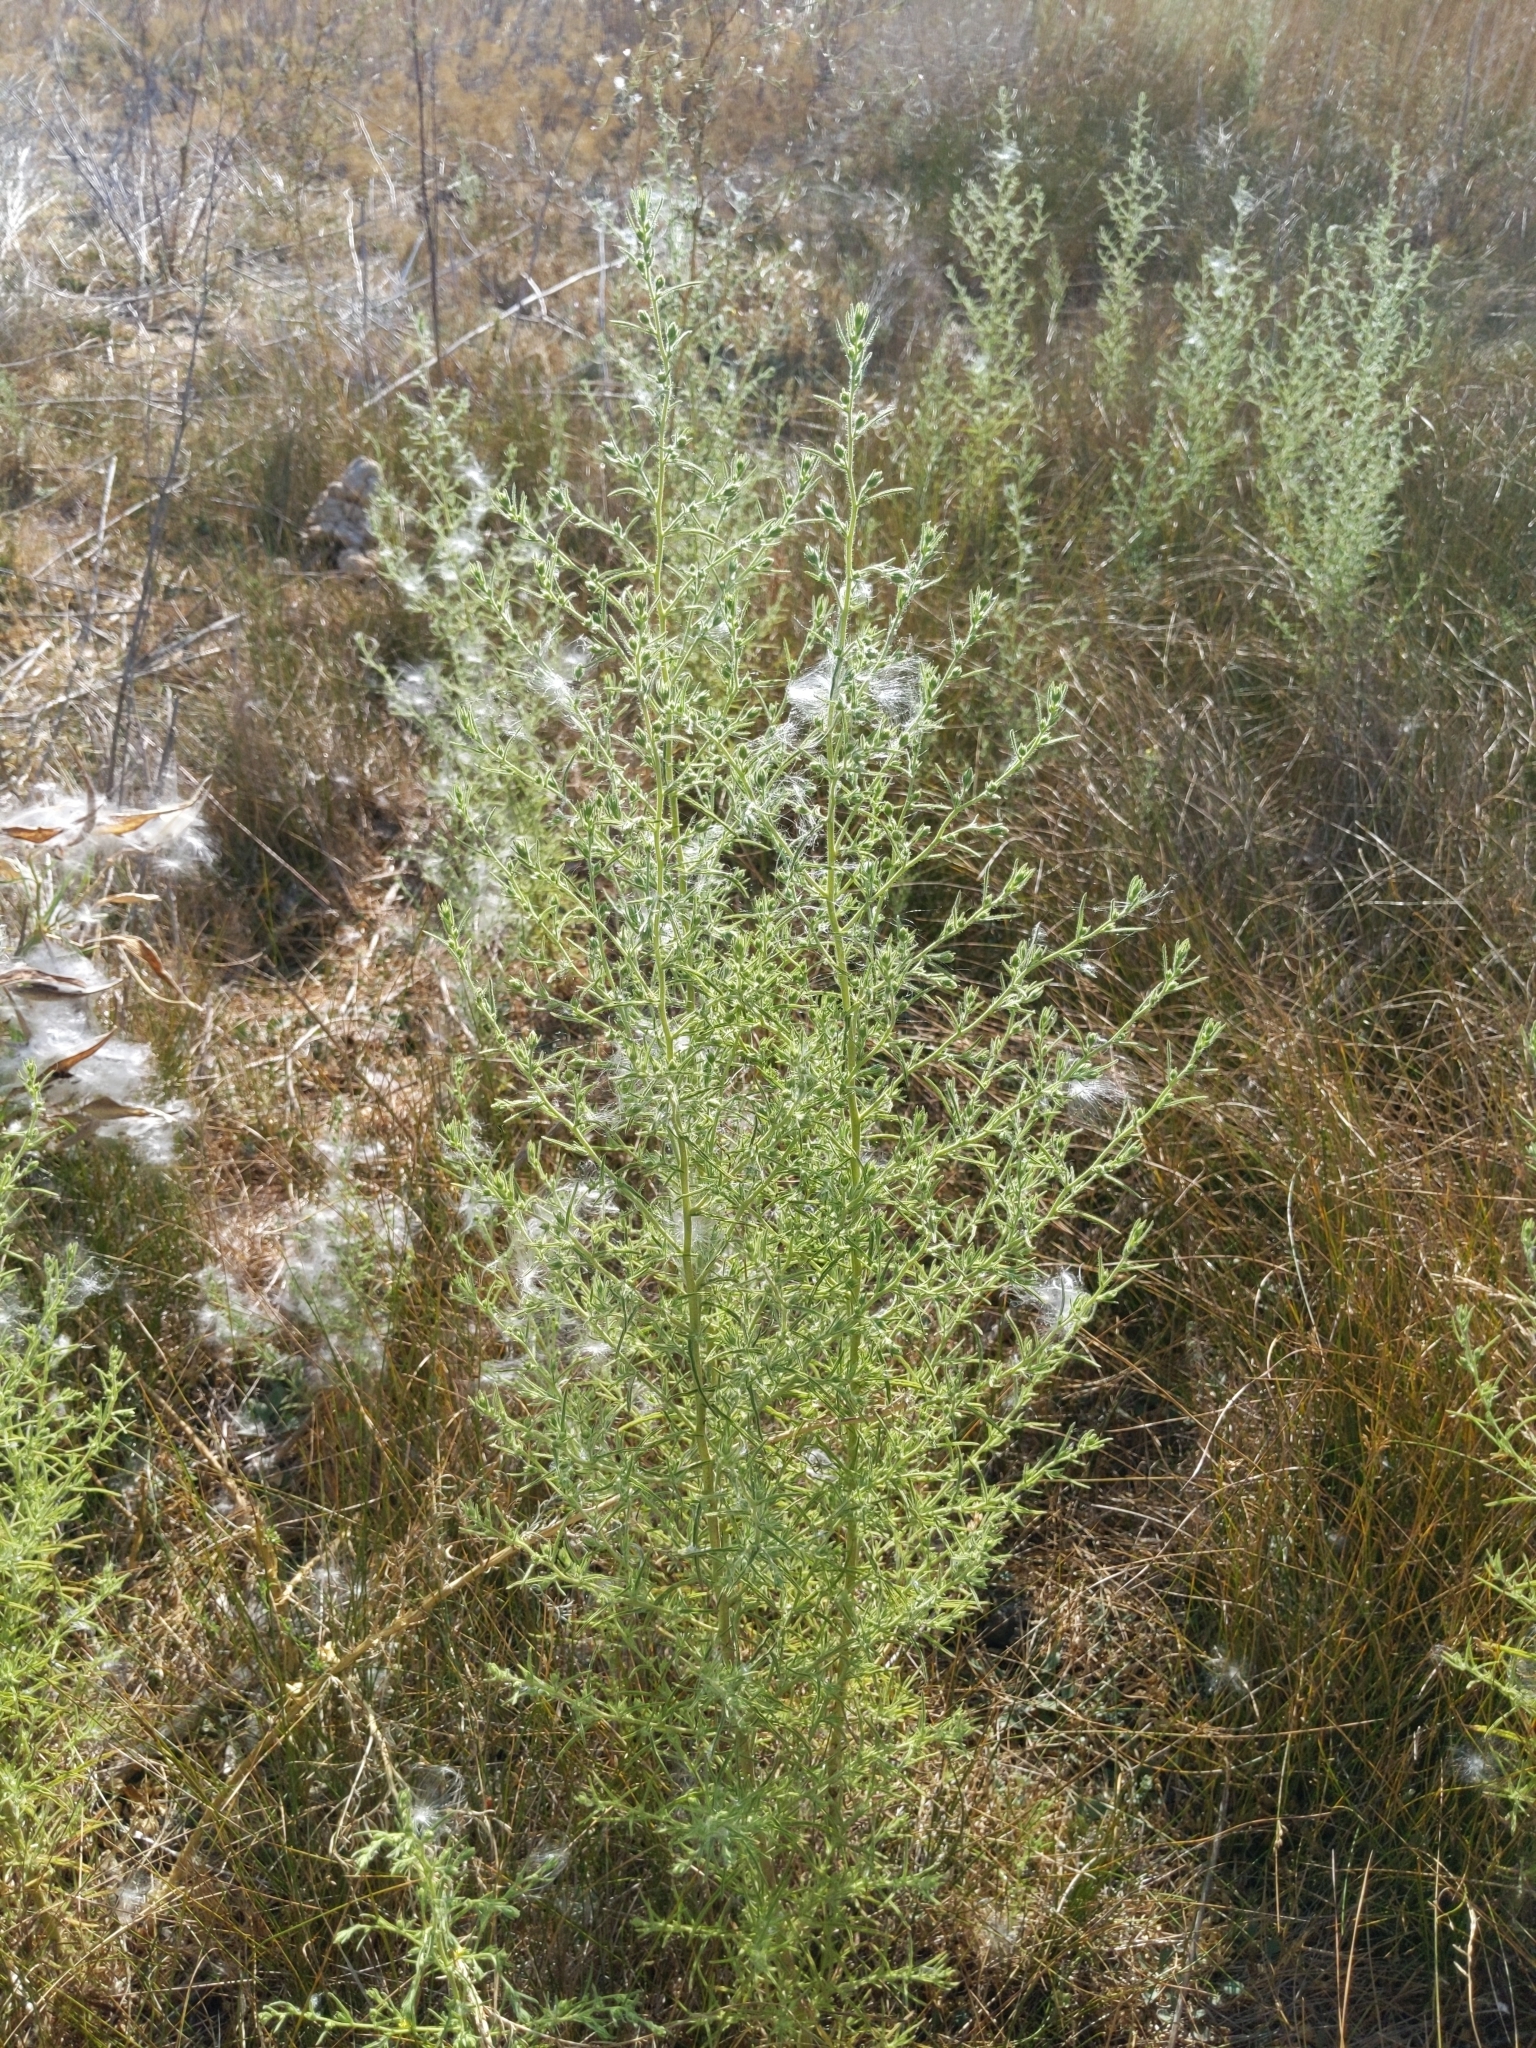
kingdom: Plantae
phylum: Tracheophyta
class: Magnoliopsida
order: Asterales
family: Asteraceae
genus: Dittrichia
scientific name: Dittrichia graveolens
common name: Stinking fleabane
